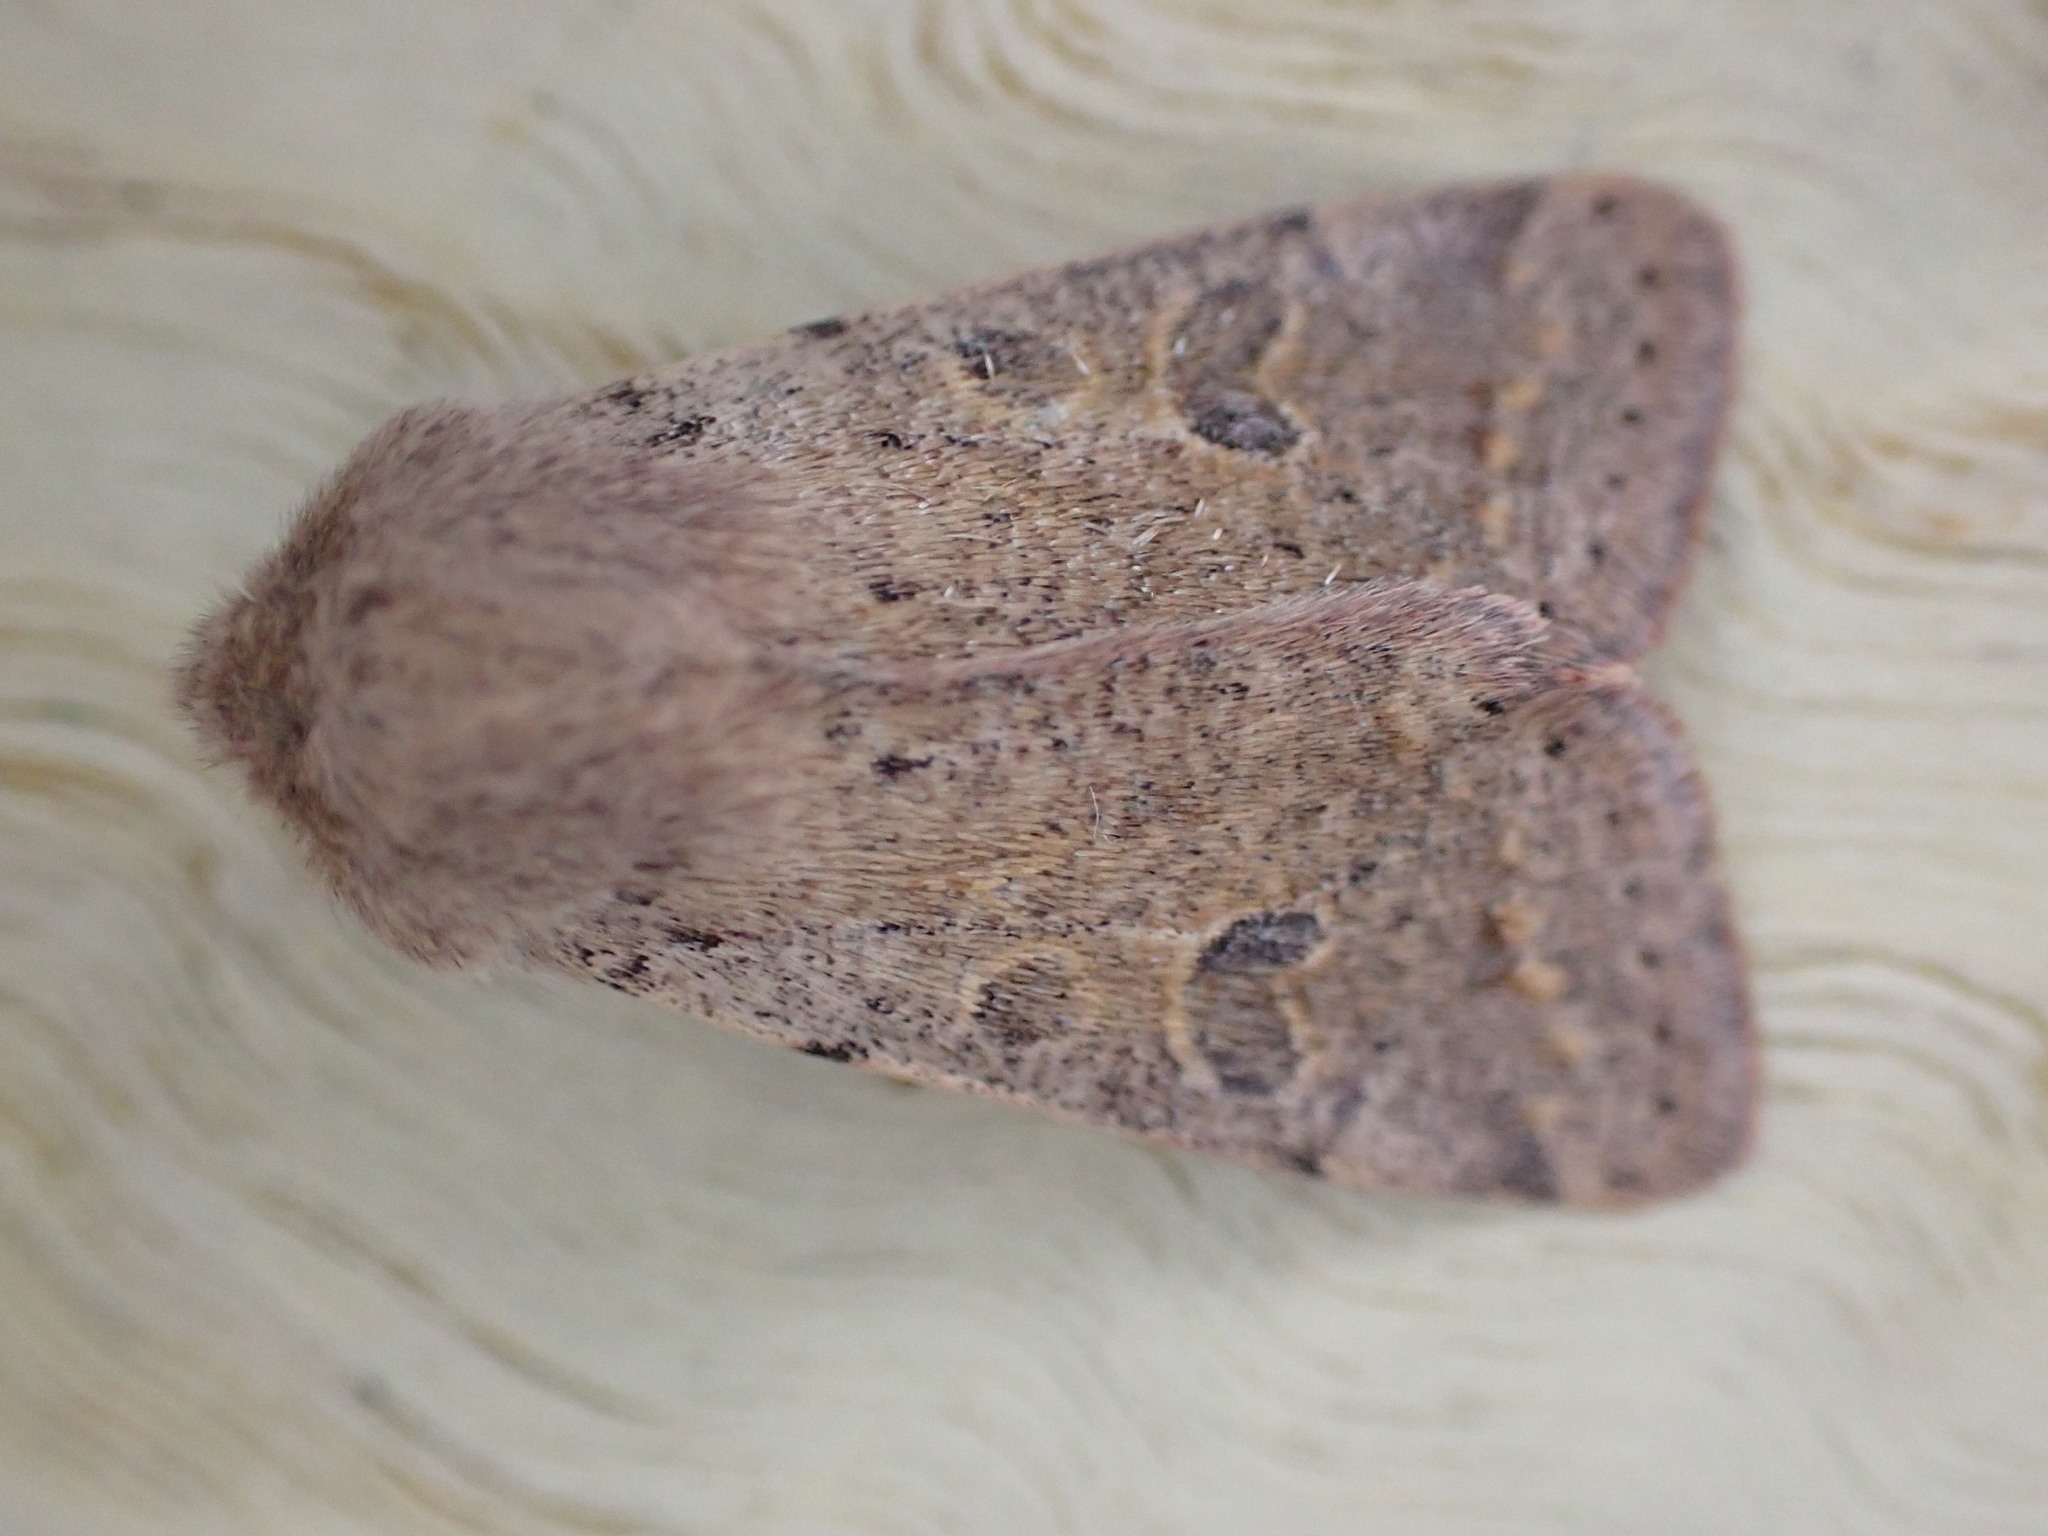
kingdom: Animalia
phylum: Arthropoda
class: Insecta
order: Lepidoptera
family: Noctuidae
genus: Orthosia
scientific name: Orthosia cruda
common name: Small quaker
